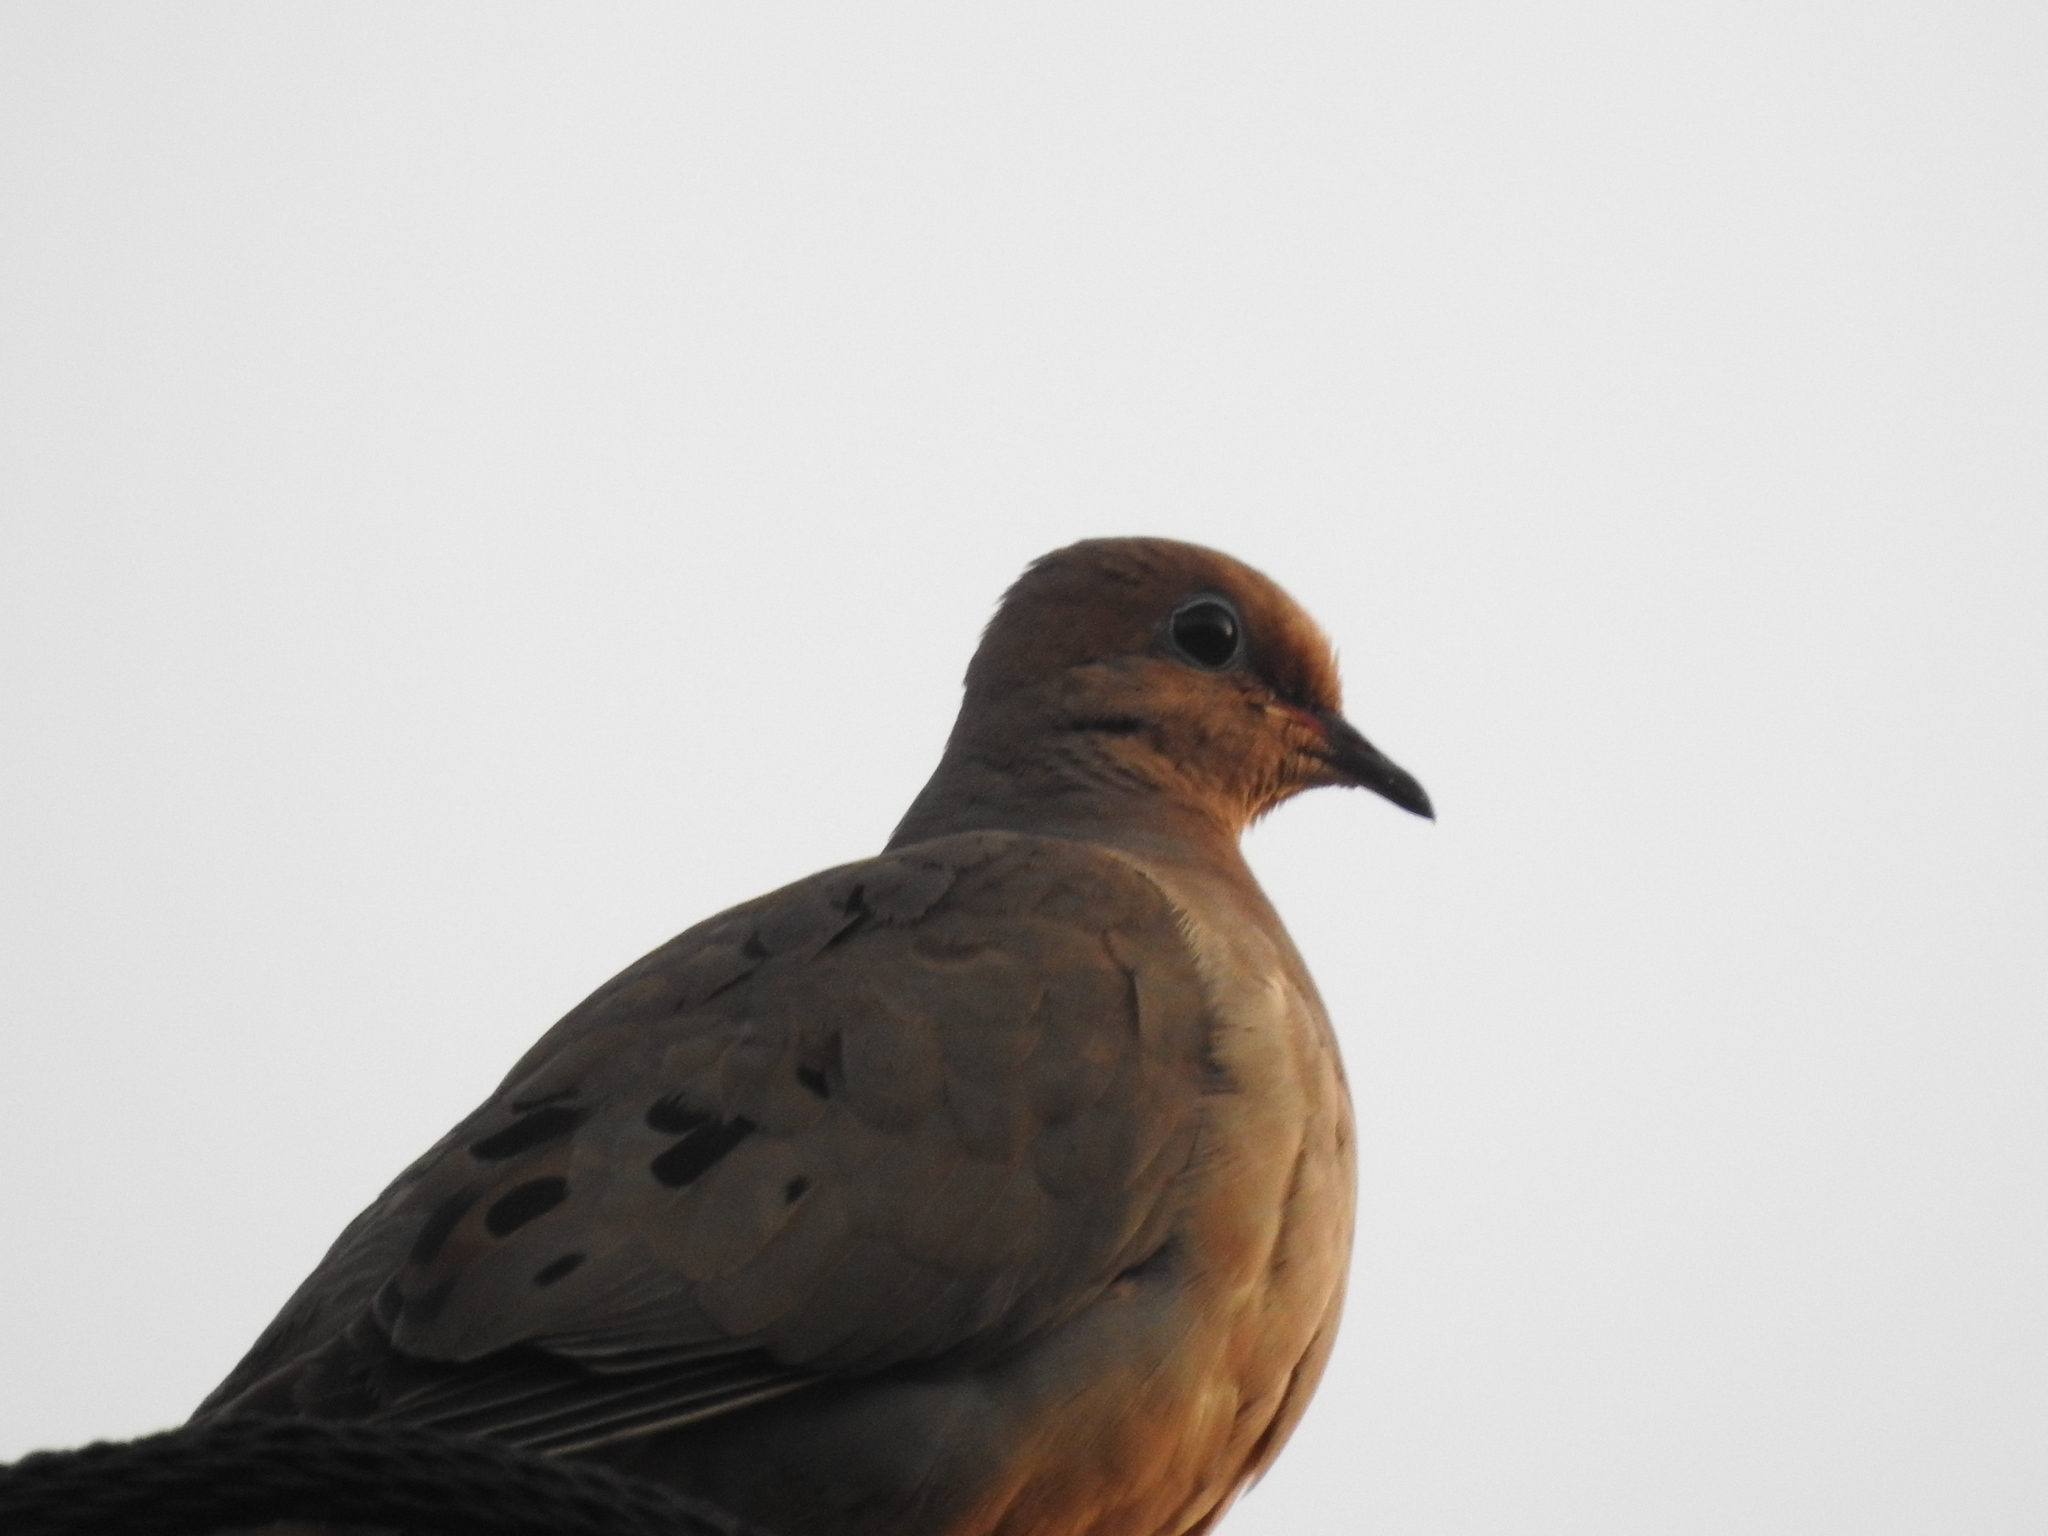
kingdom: Animalia
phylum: Chordata
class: Aves
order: Columbiformes
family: Columbidae
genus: Zenaida
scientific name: Zenaida macroura
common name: Mourning dove
